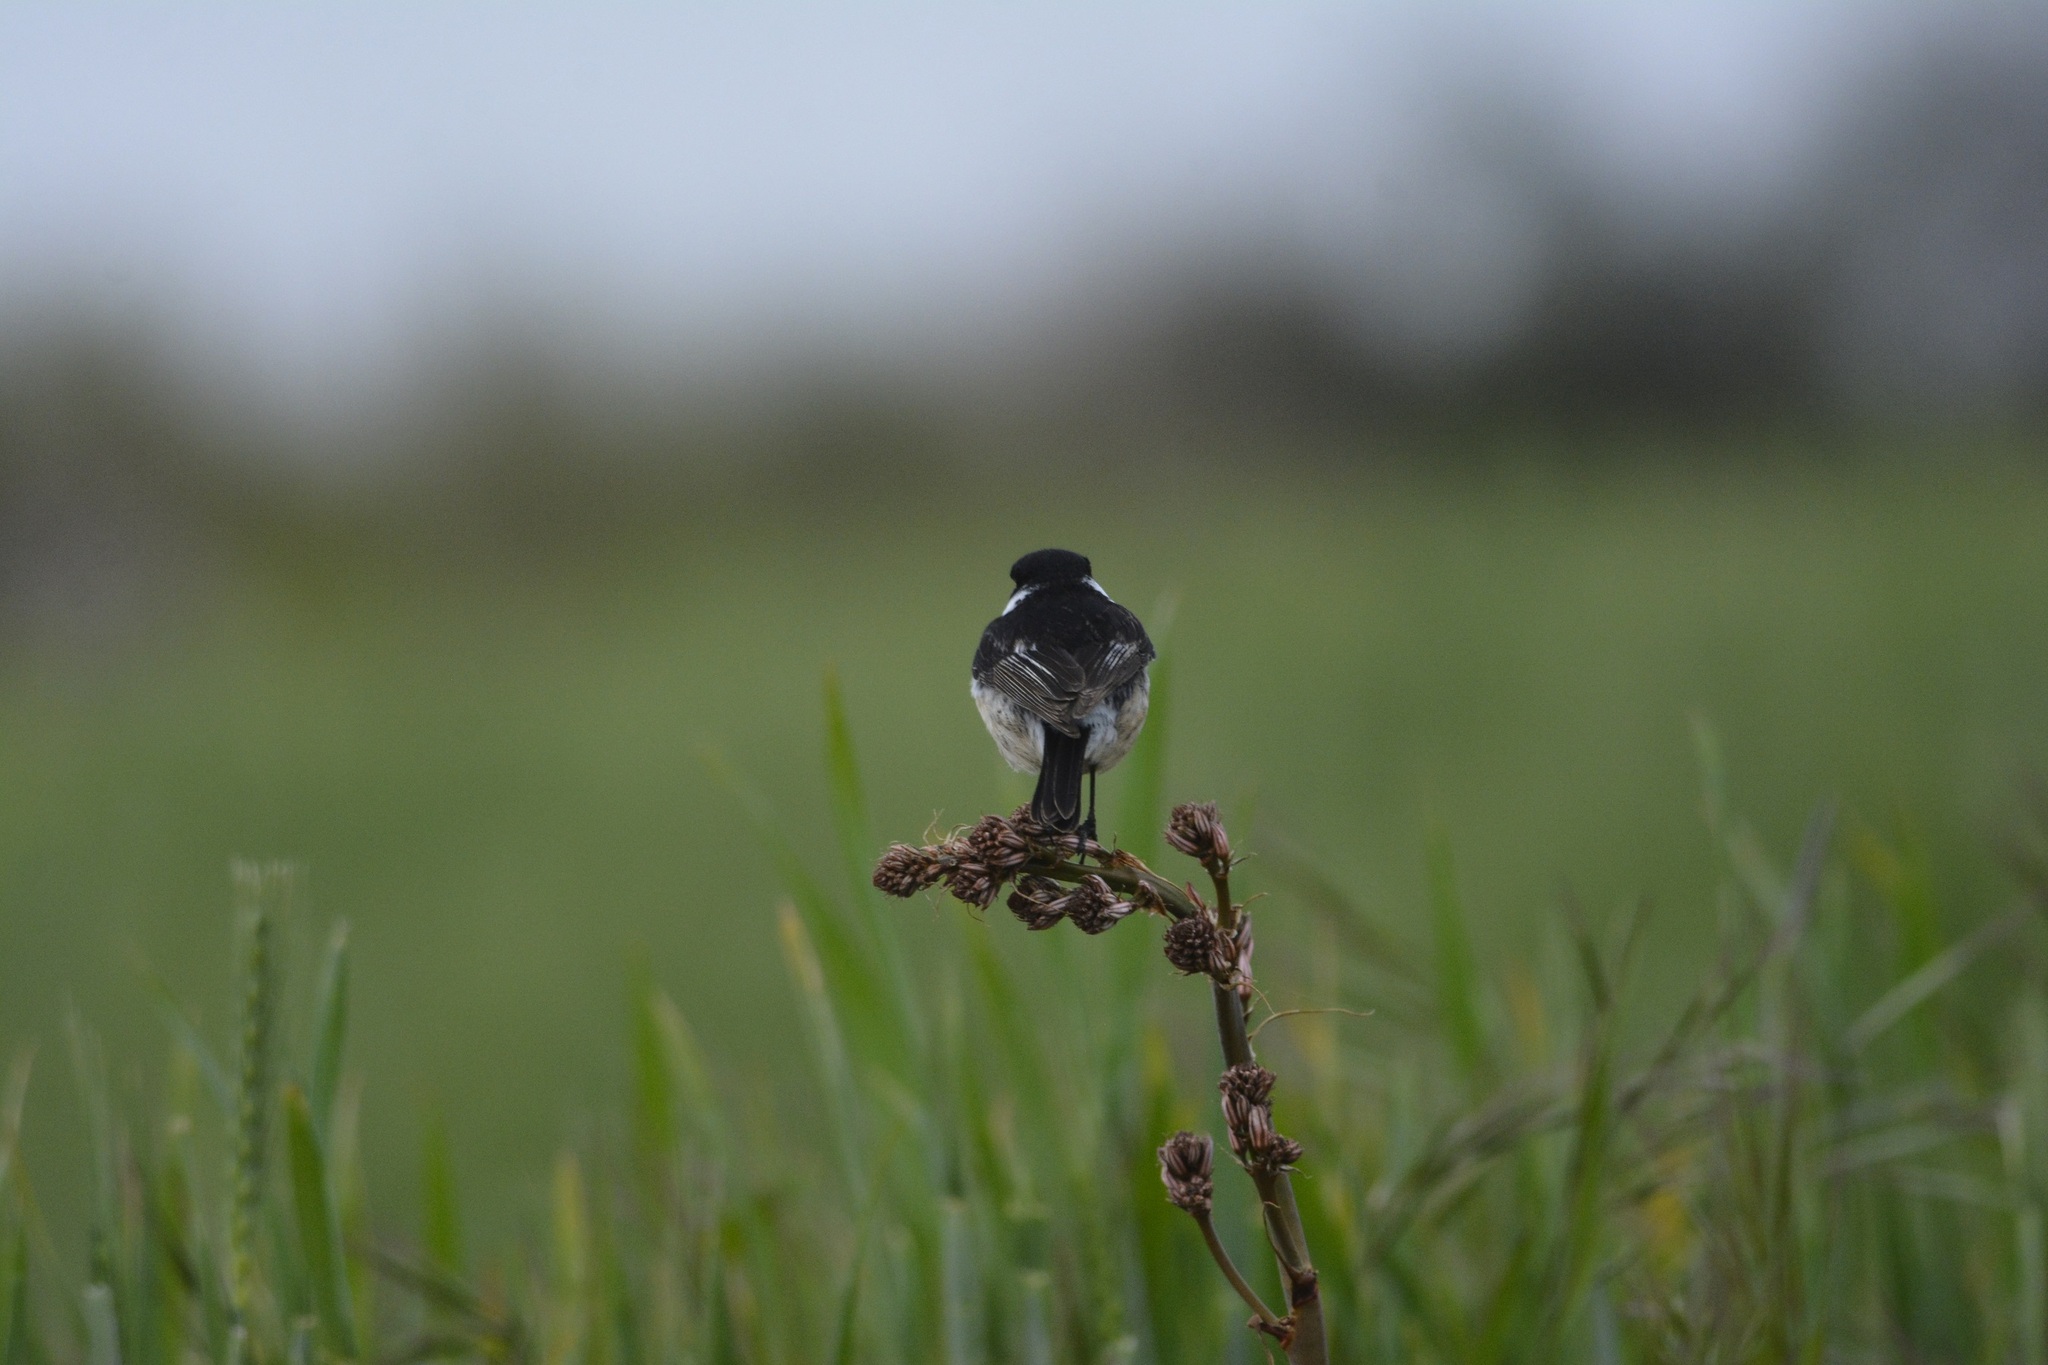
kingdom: Animalia
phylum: Chordata
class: Aves
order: Passeriformes
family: Muscicapidae
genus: Saxicola
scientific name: Saxicola rubicola
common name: European stonechat
